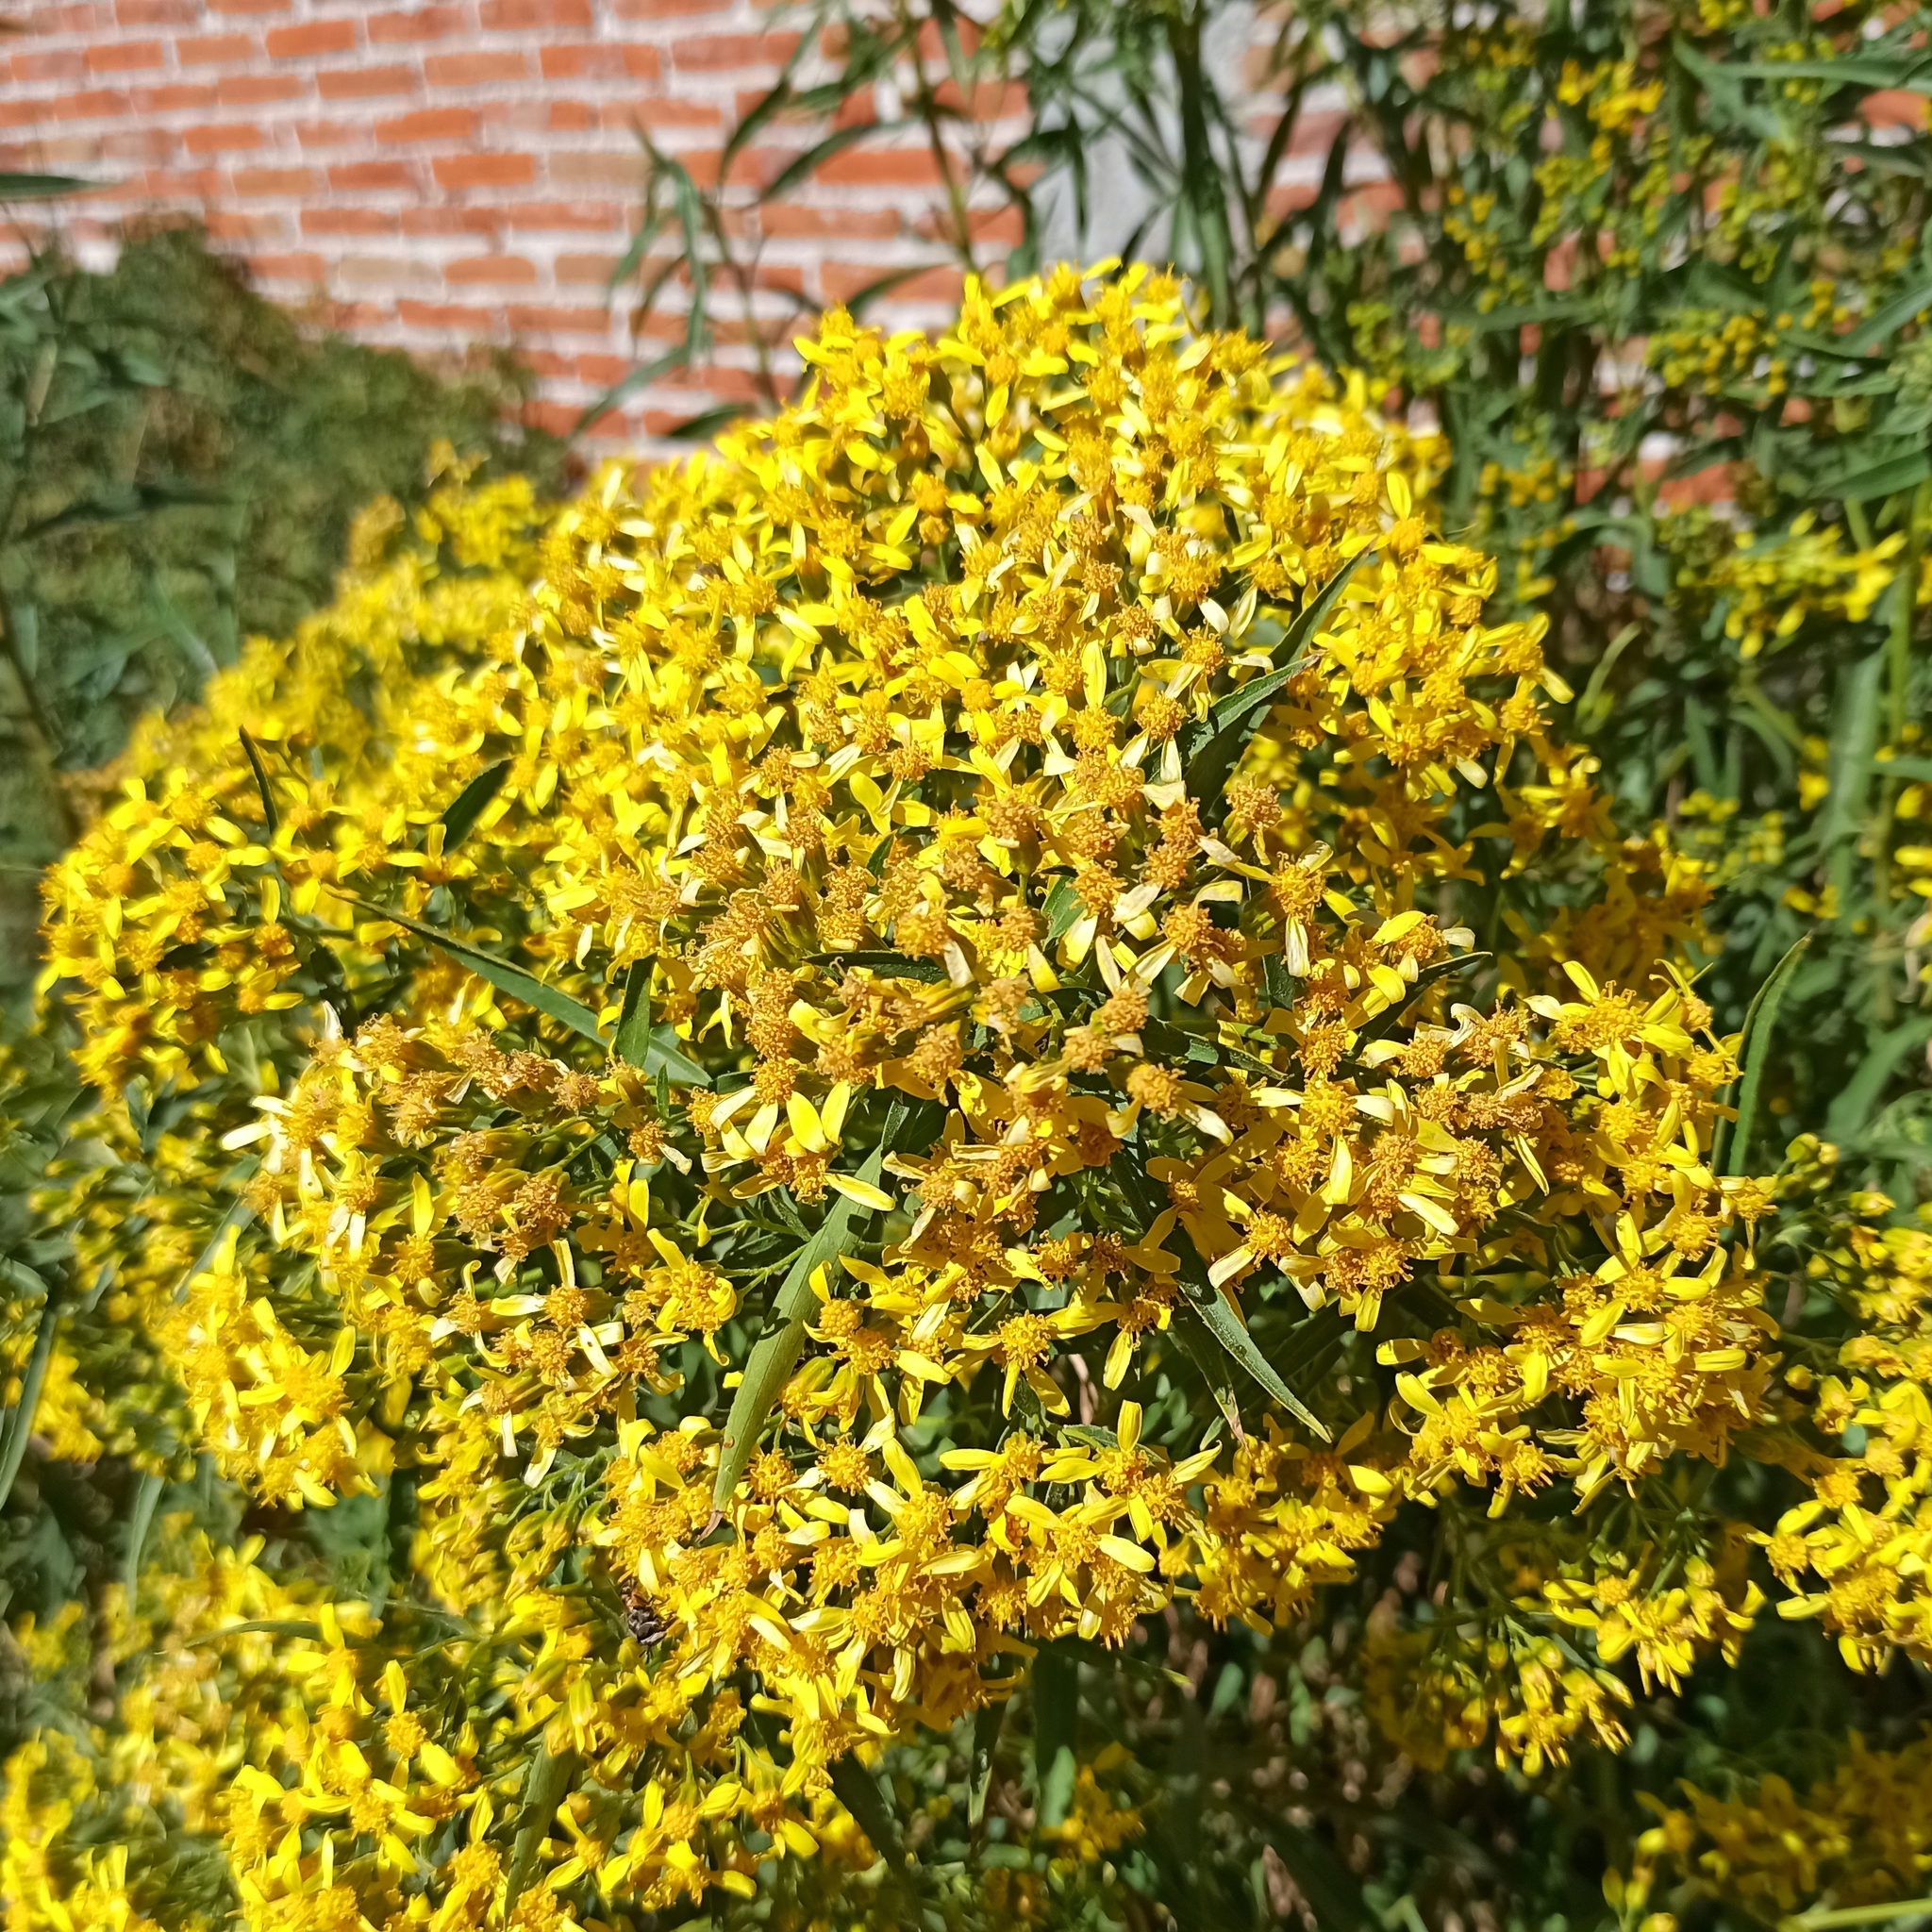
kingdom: Plantae
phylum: Tracheophyta
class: Magnoliopsida
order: Asterales
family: Asteraceae
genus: Barkleyanthus
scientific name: Barkleyanthus salicifolius
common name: Willow ragwort
